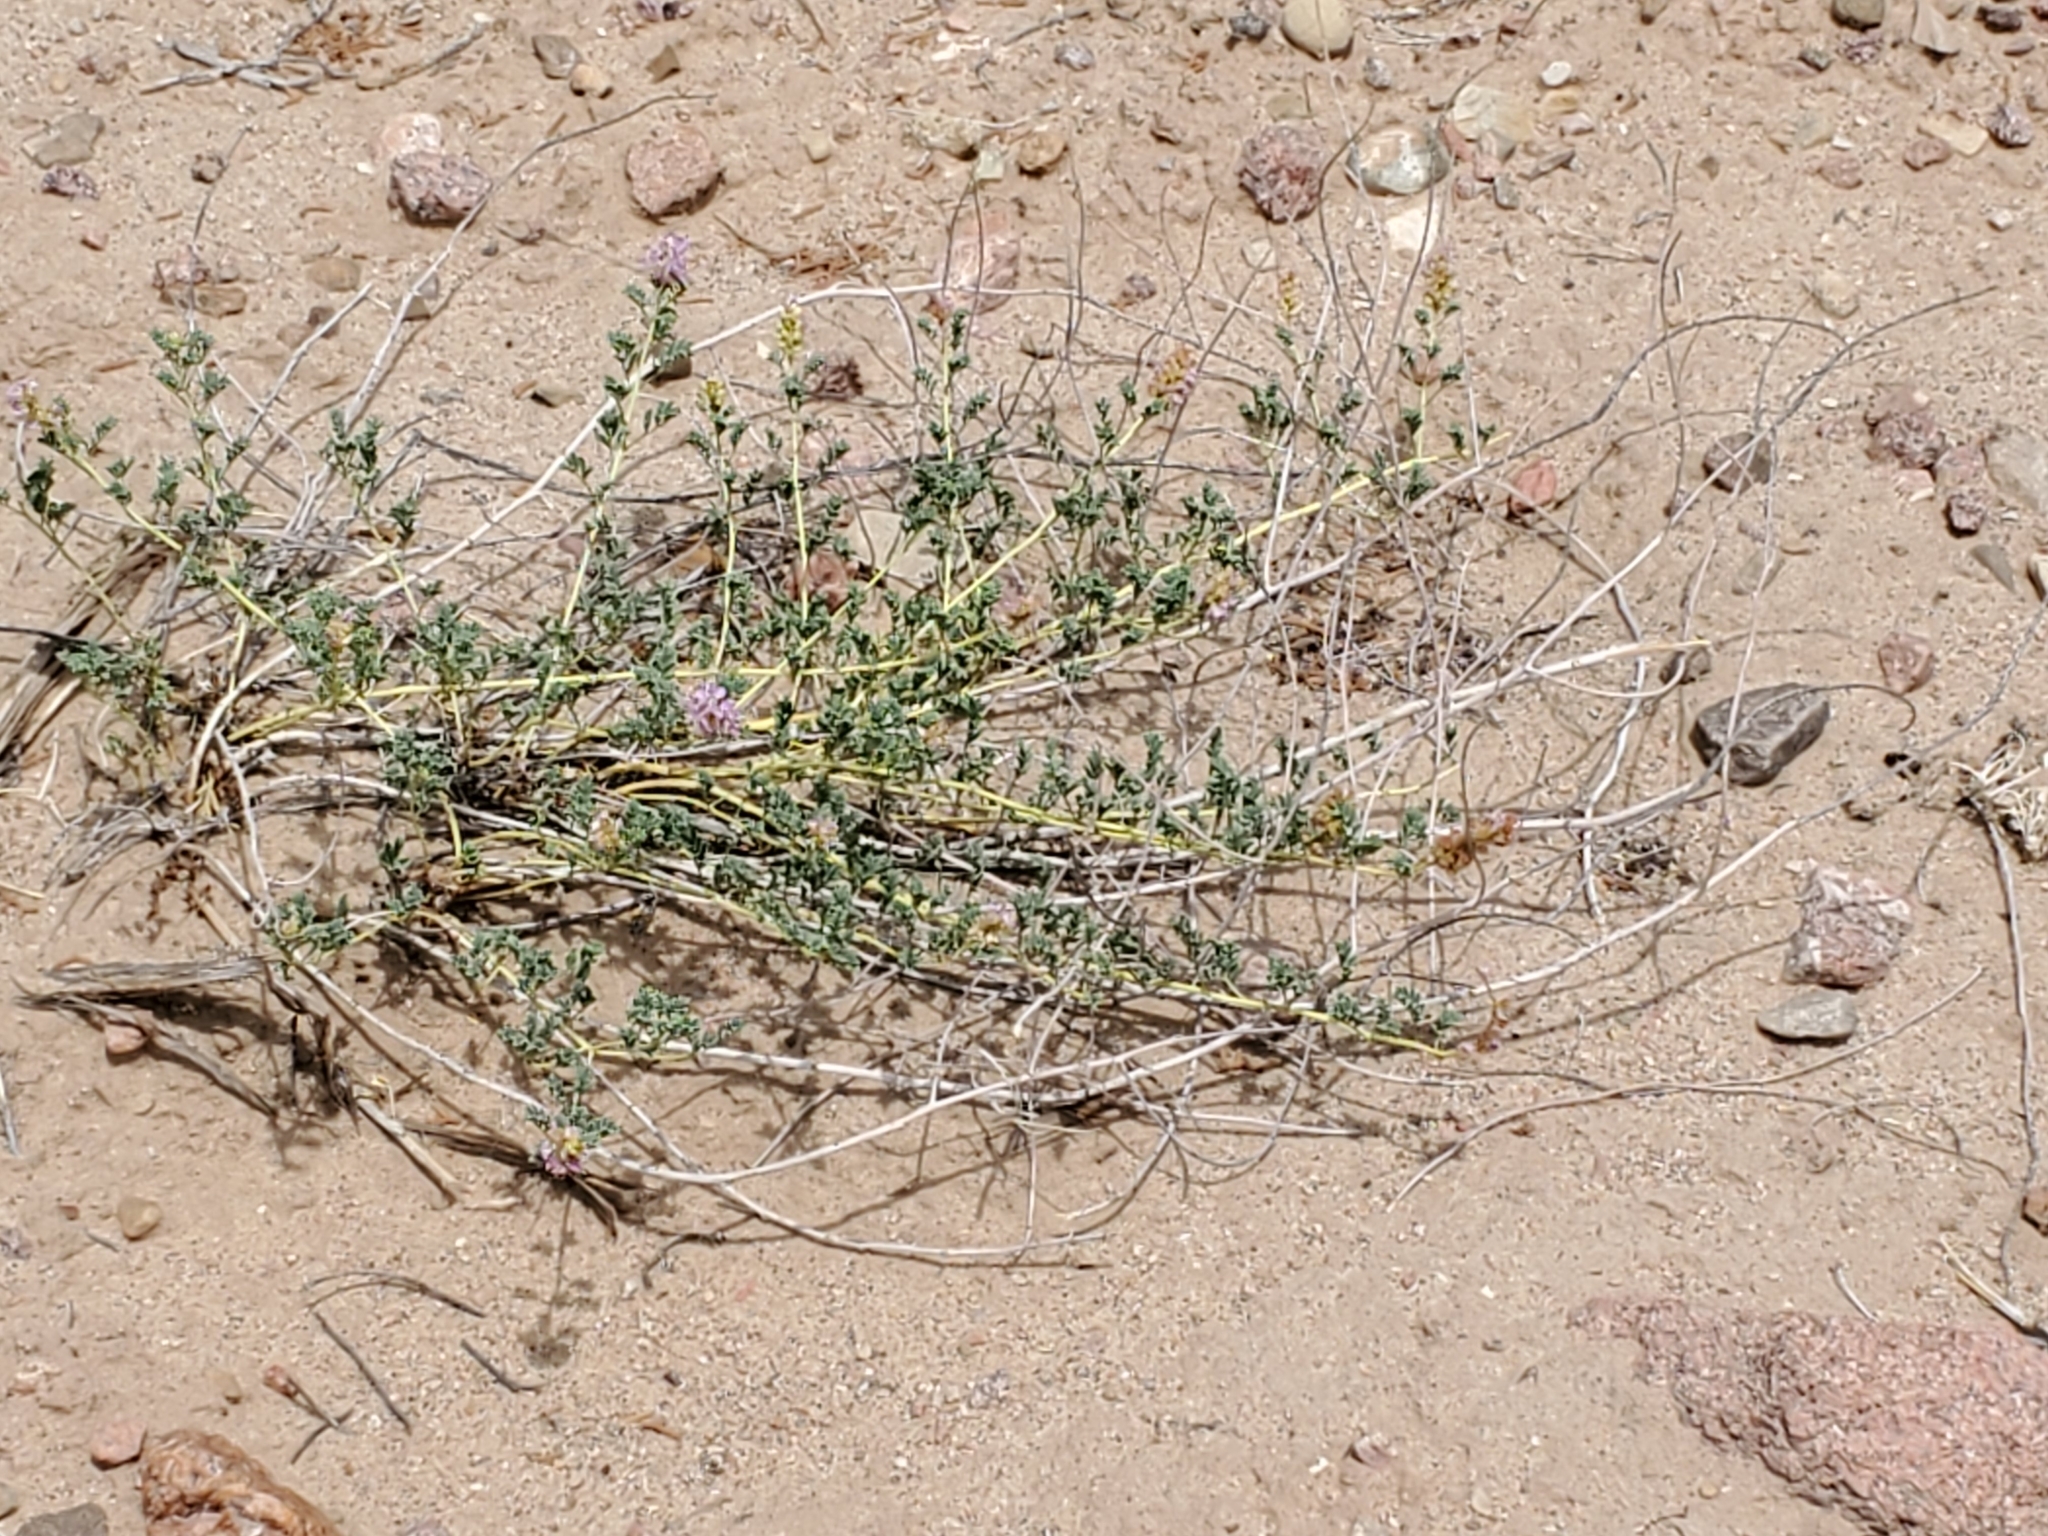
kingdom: Plantae
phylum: Tracheophyta
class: Magnoliopsida
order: Fabales
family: Fabaceae
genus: Dalea
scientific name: Dalea scariosa
